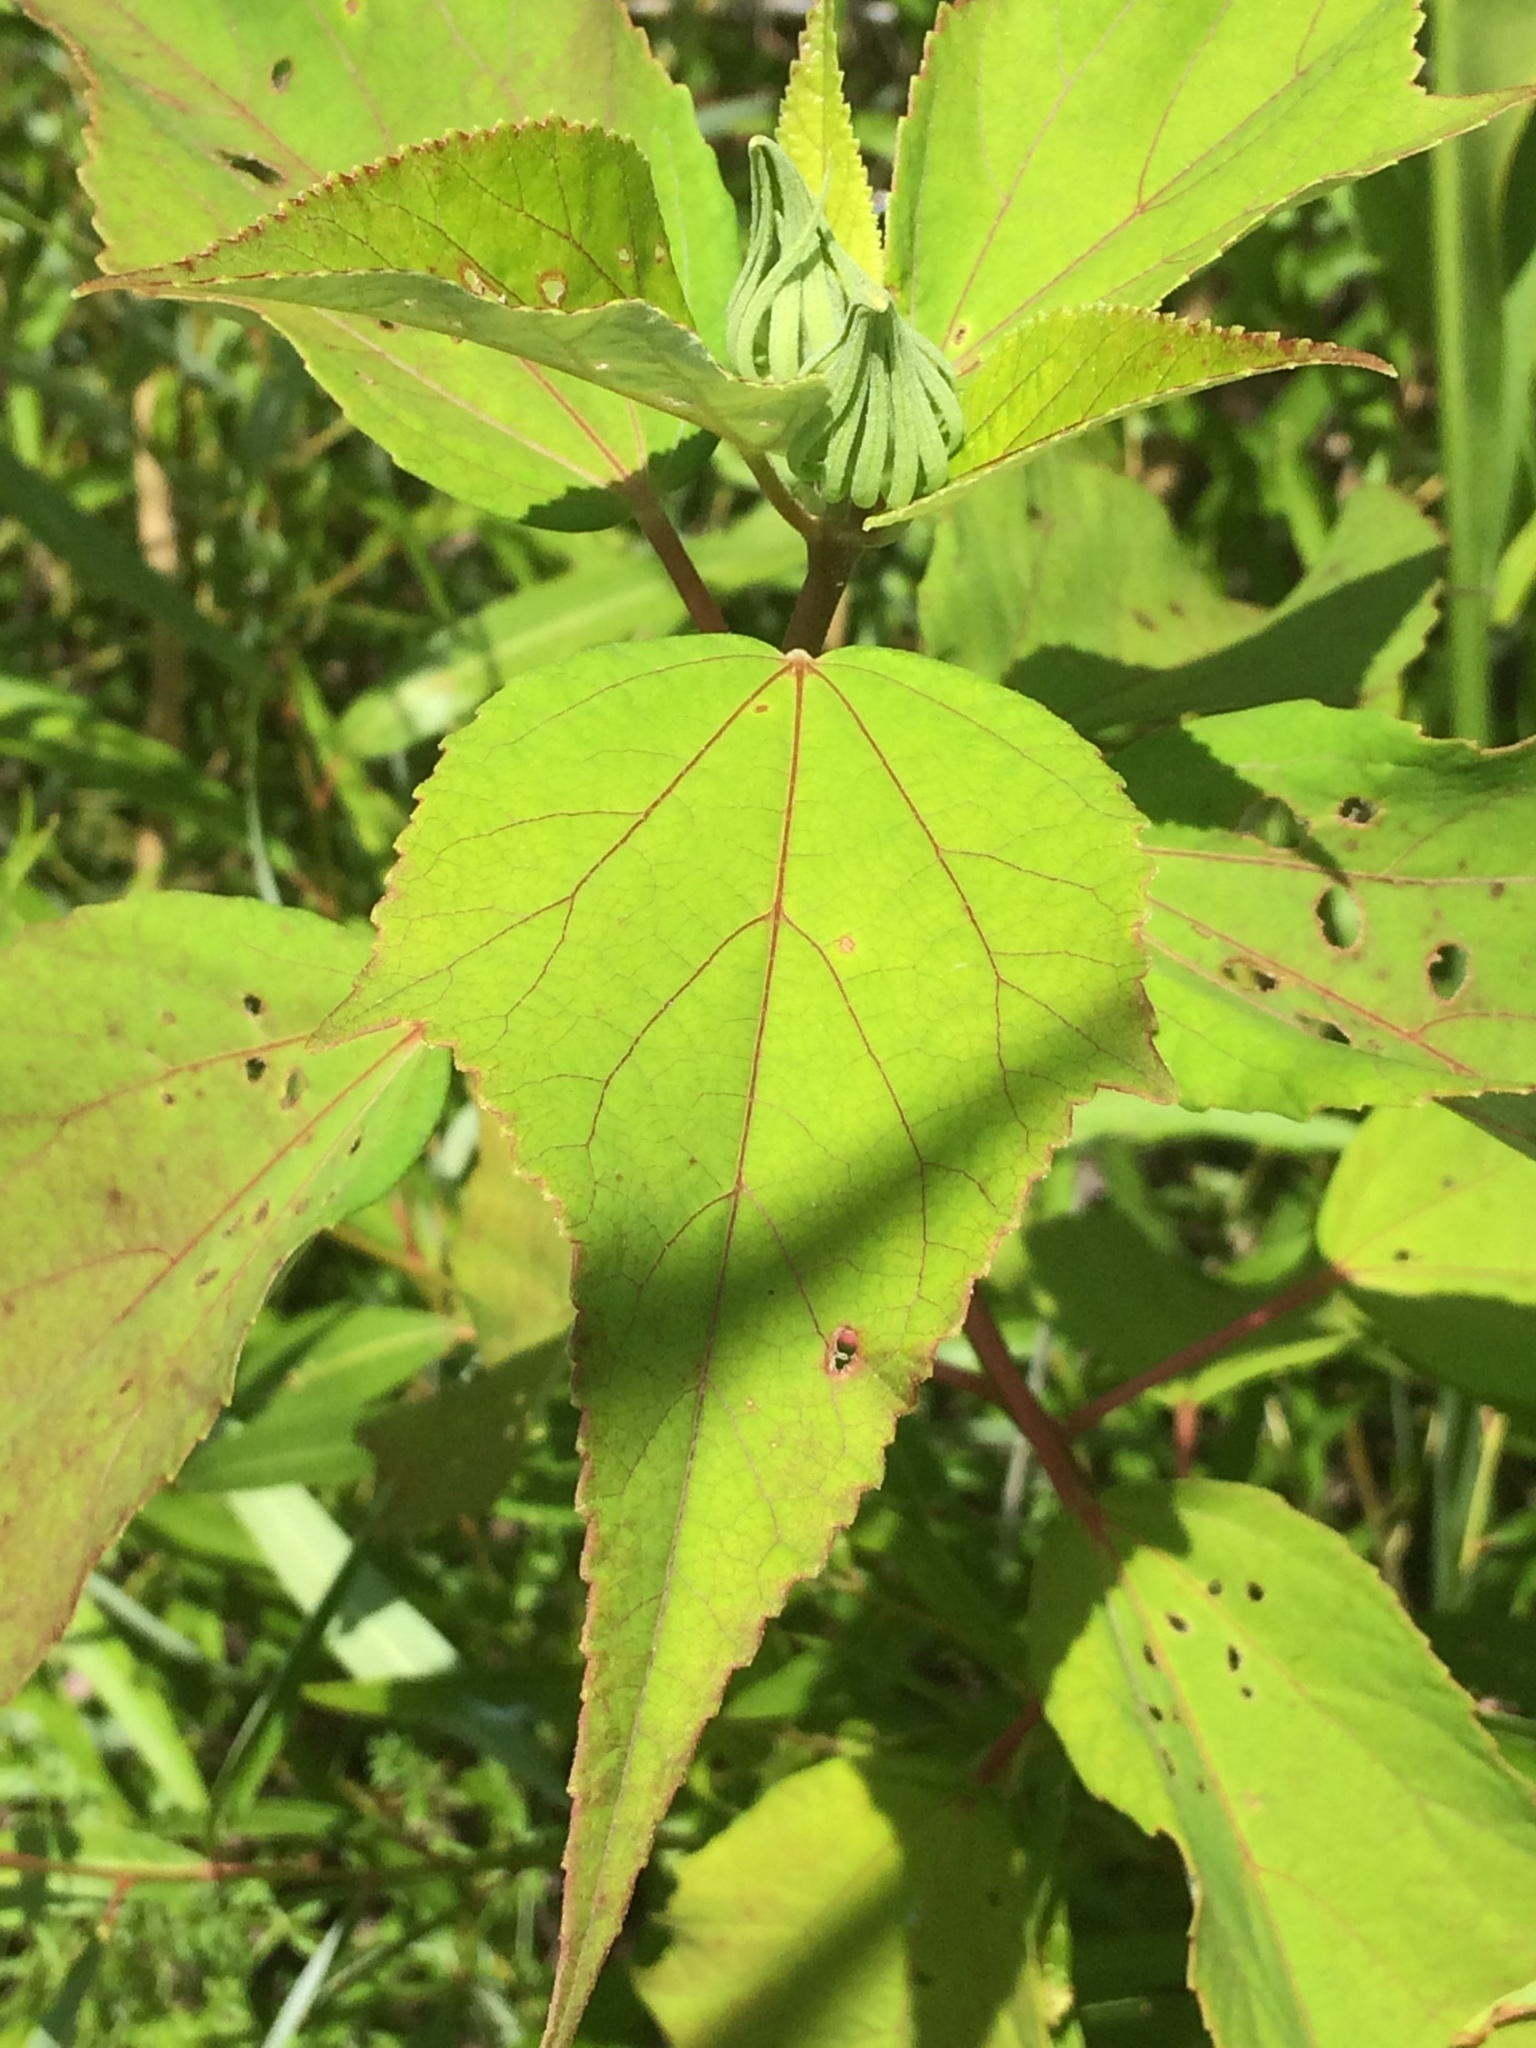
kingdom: Plantae
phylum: Tracheophyta
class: Magnoliopsida
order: Malvales
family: Malvaceae
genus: Hibiscus
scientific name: Hibiscus moscheutos
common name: Common rose-mallow
